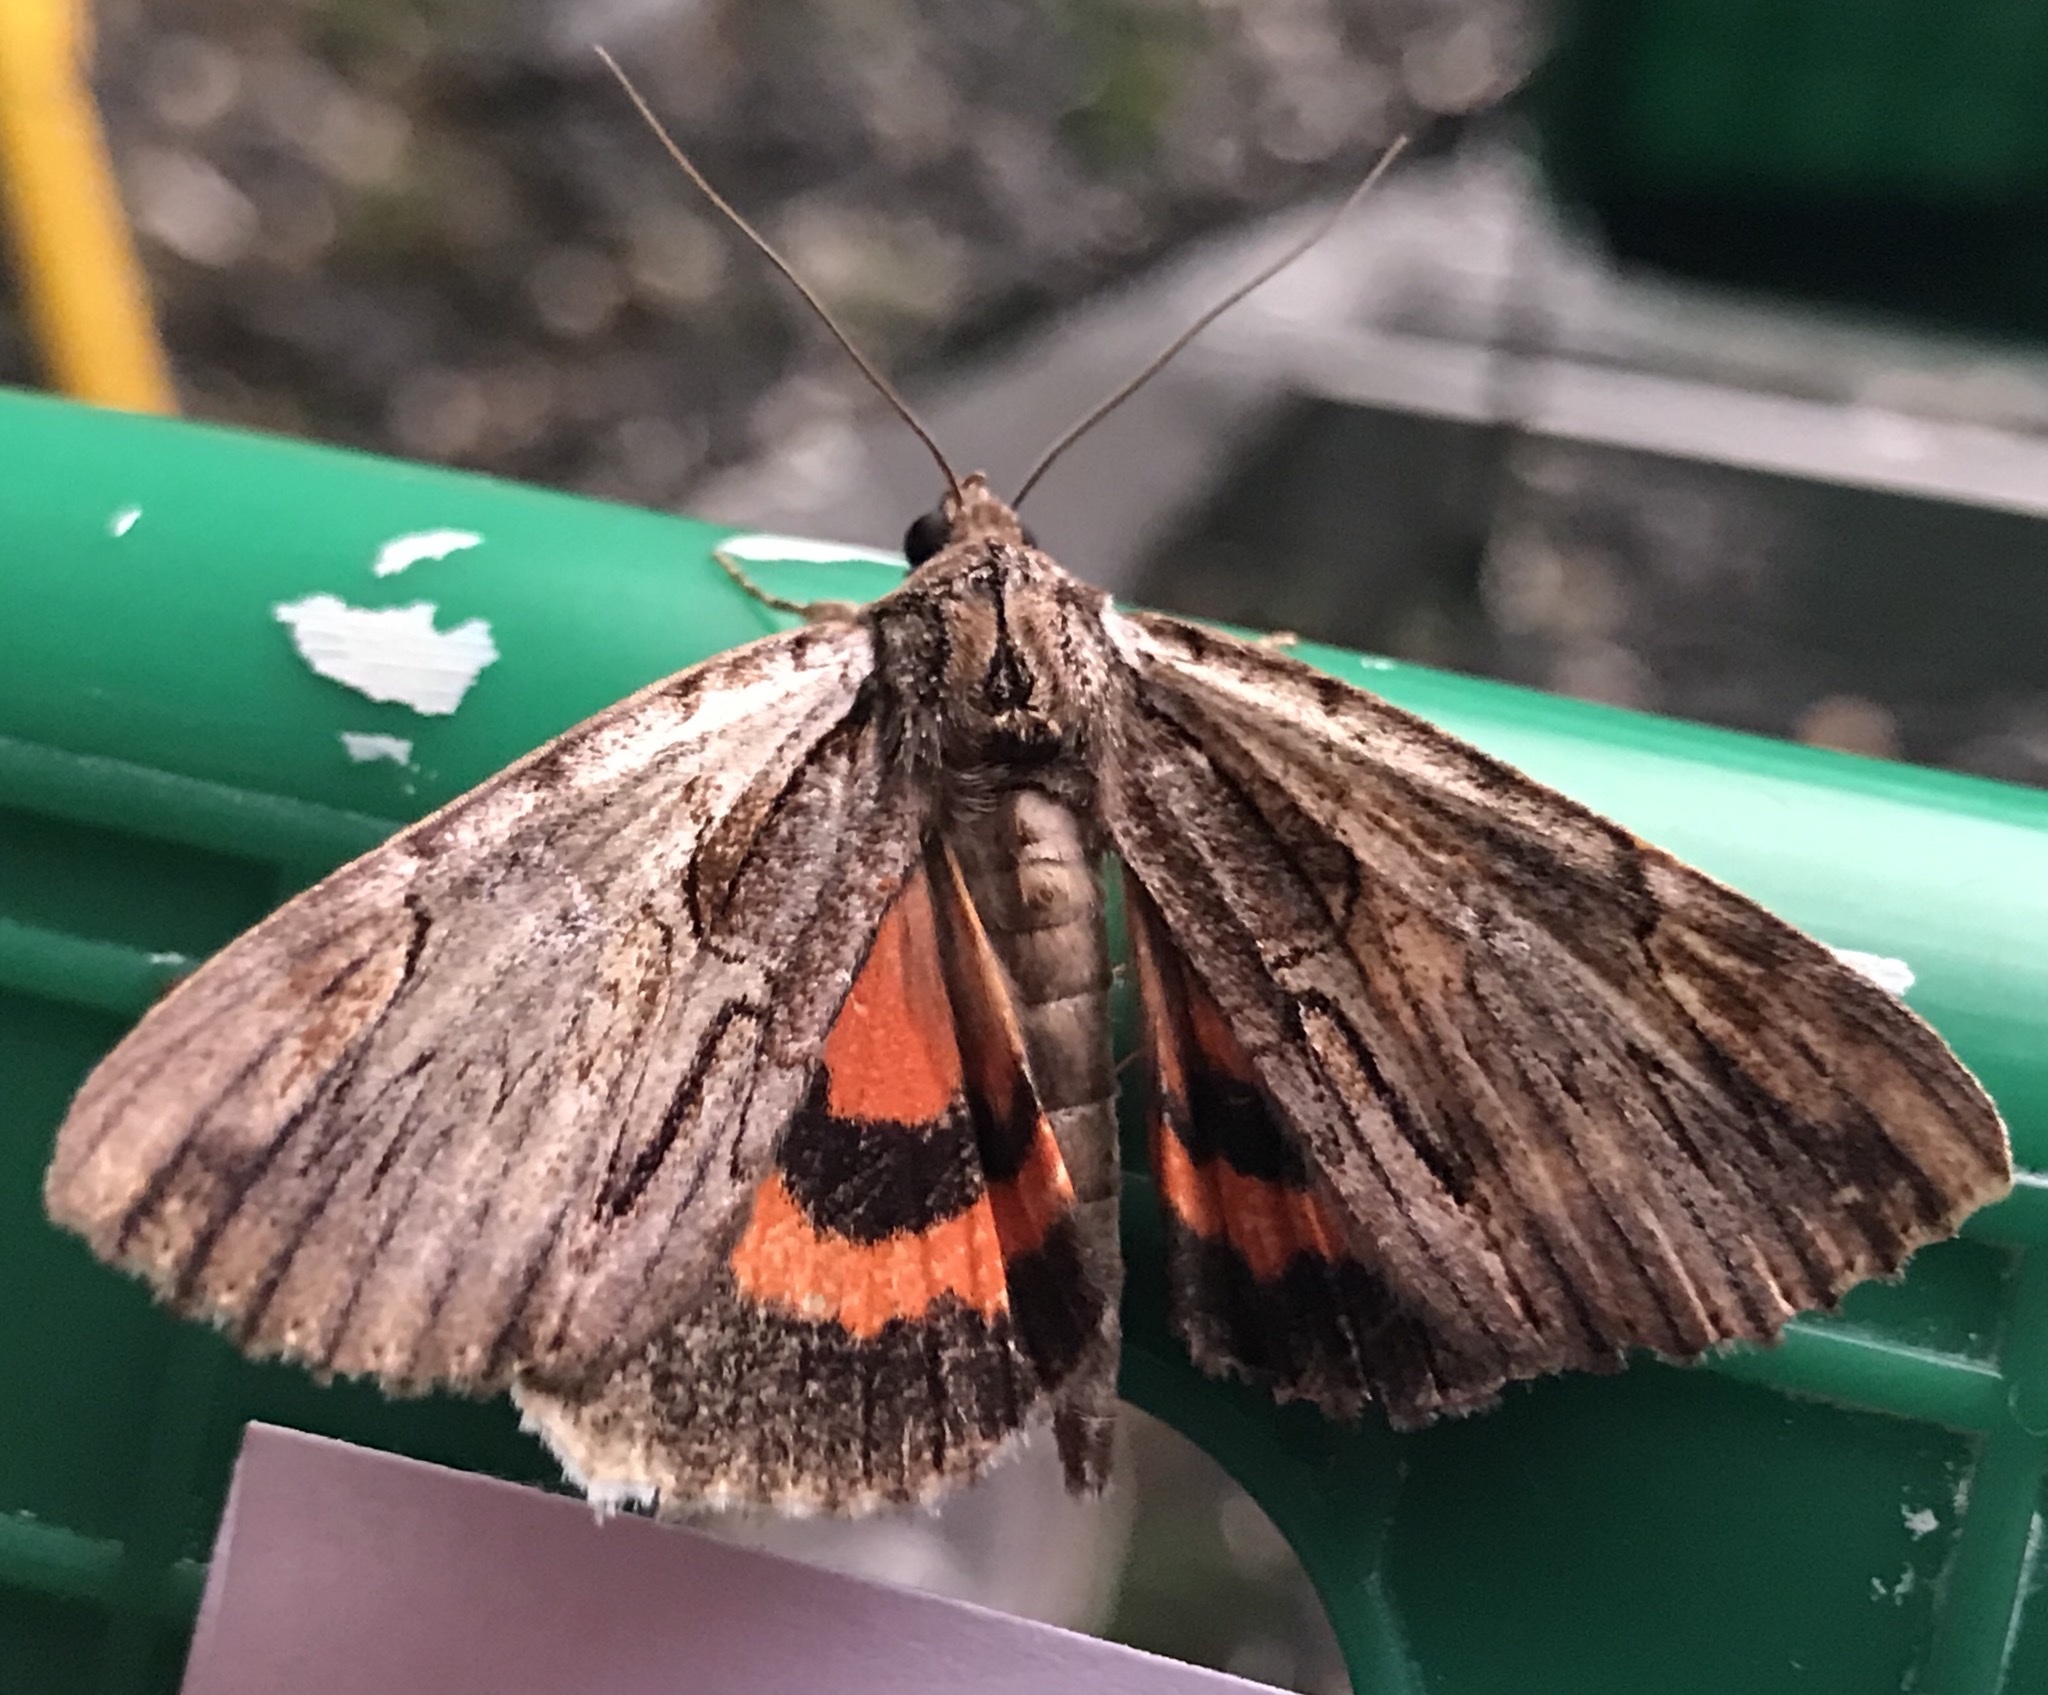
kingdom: Animalia
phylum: Arthropoda
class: Insecta
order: Lepidoptera
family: Erebidae
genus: Catocala
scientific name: Catocala ultronia
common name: Ultronia underwing
